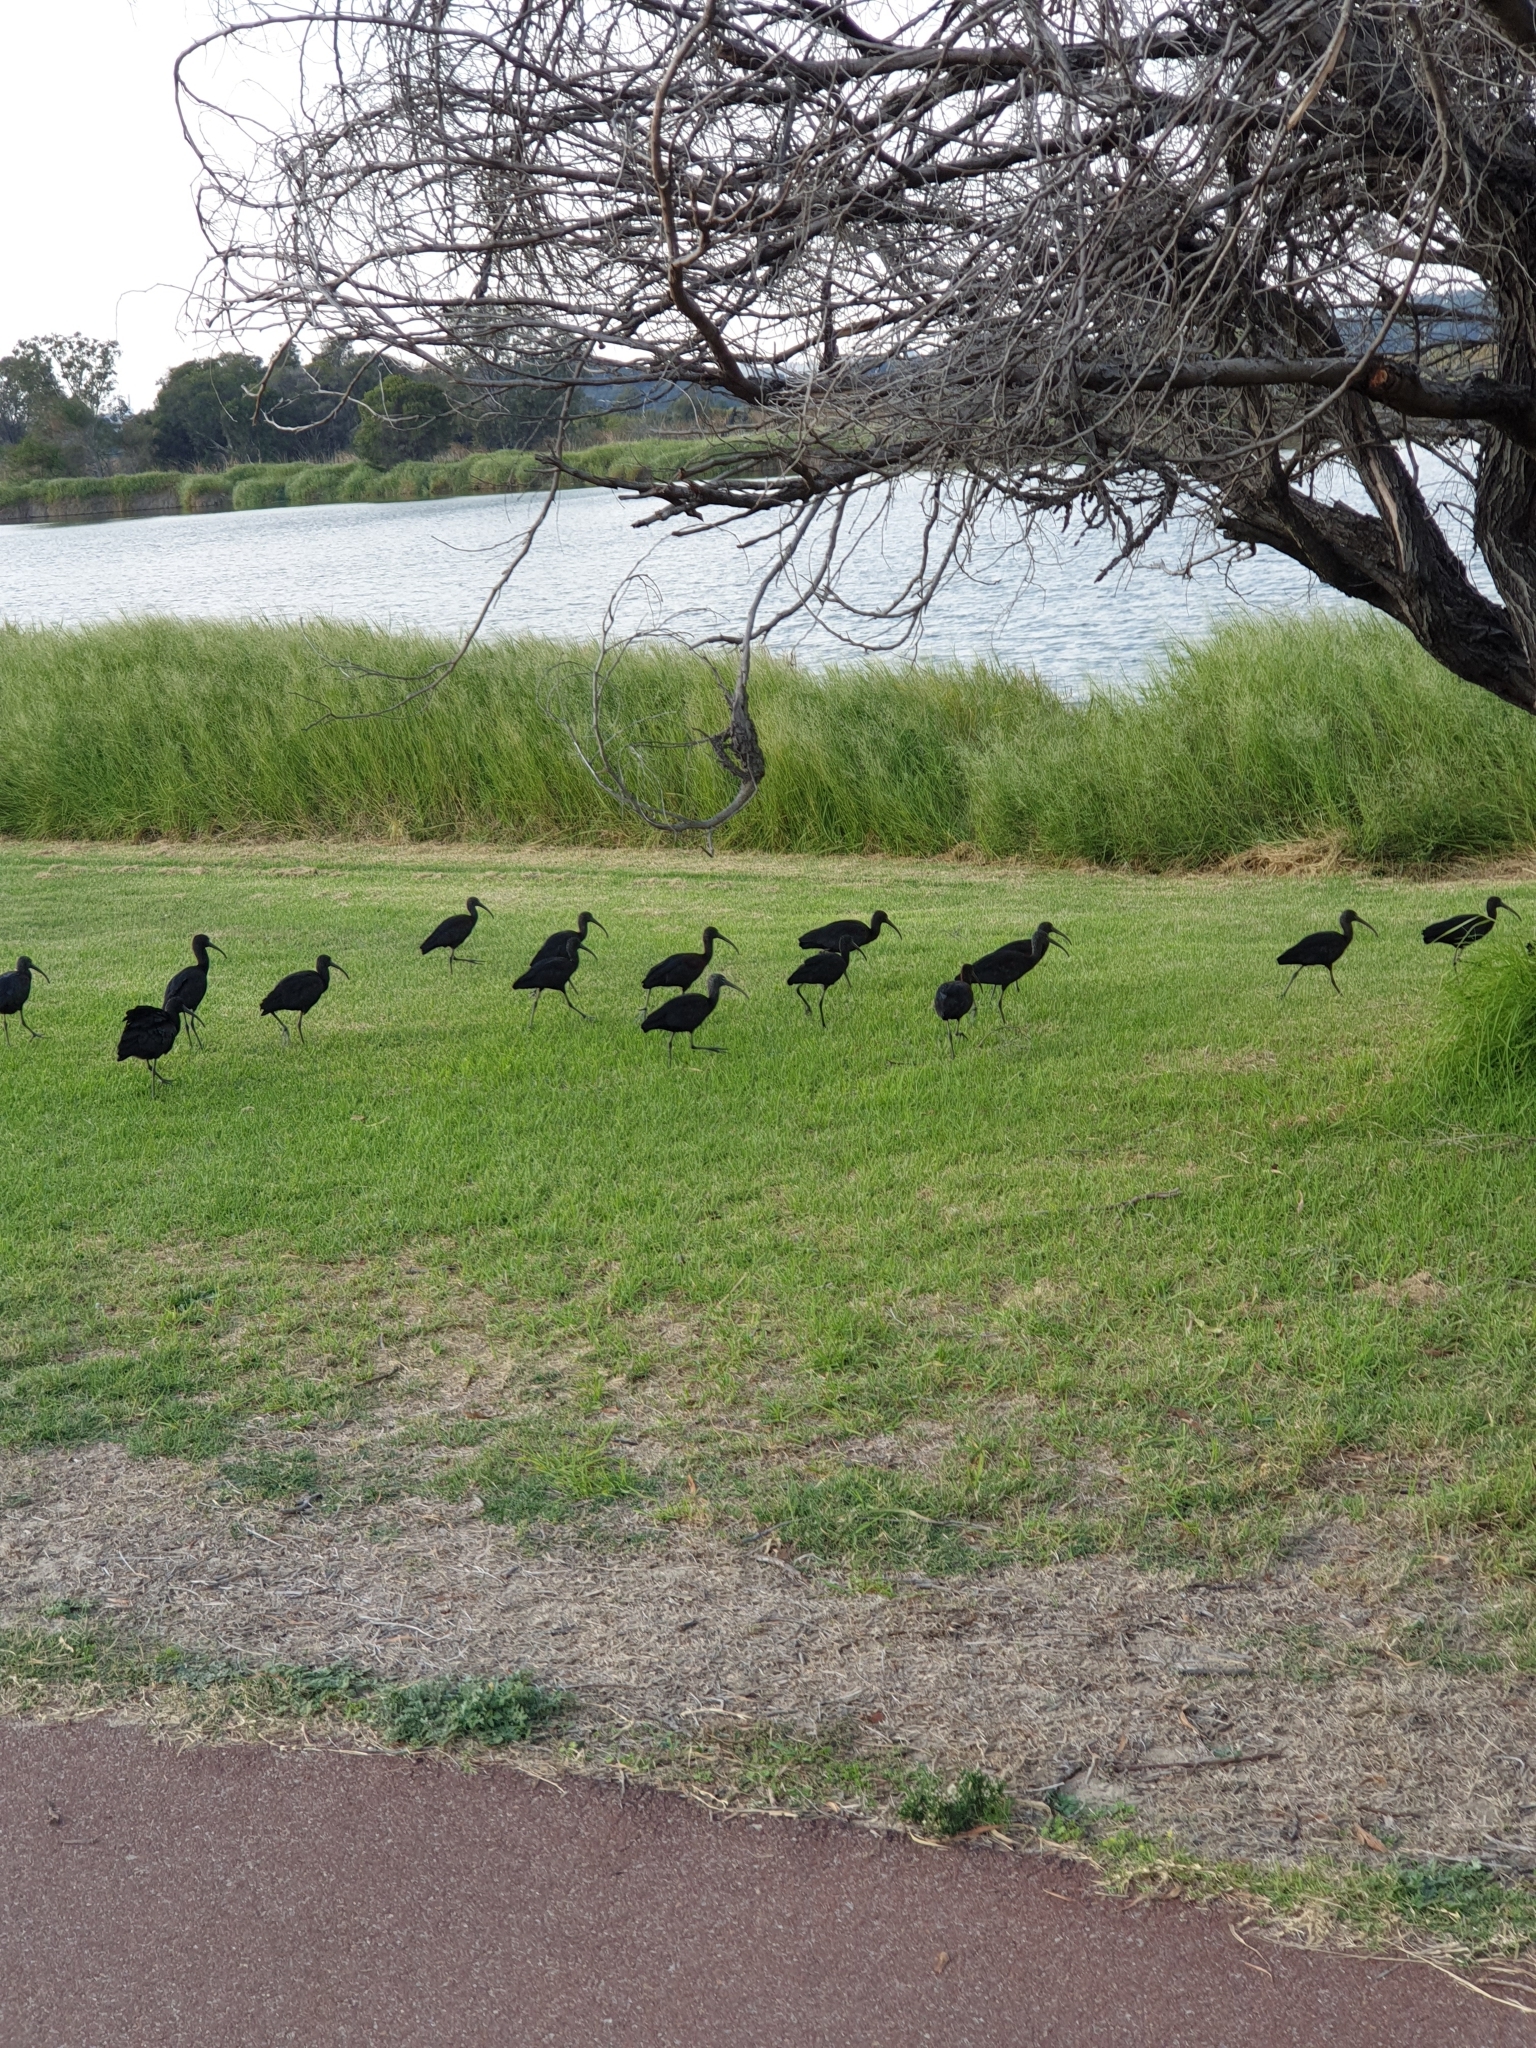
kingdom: Animalia
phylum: Chordata
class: Aves
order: Pelecaniformes
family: Threskiornithidae
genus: Plegadis
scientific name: Plegadis falcinellus
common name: Glossy ibis
